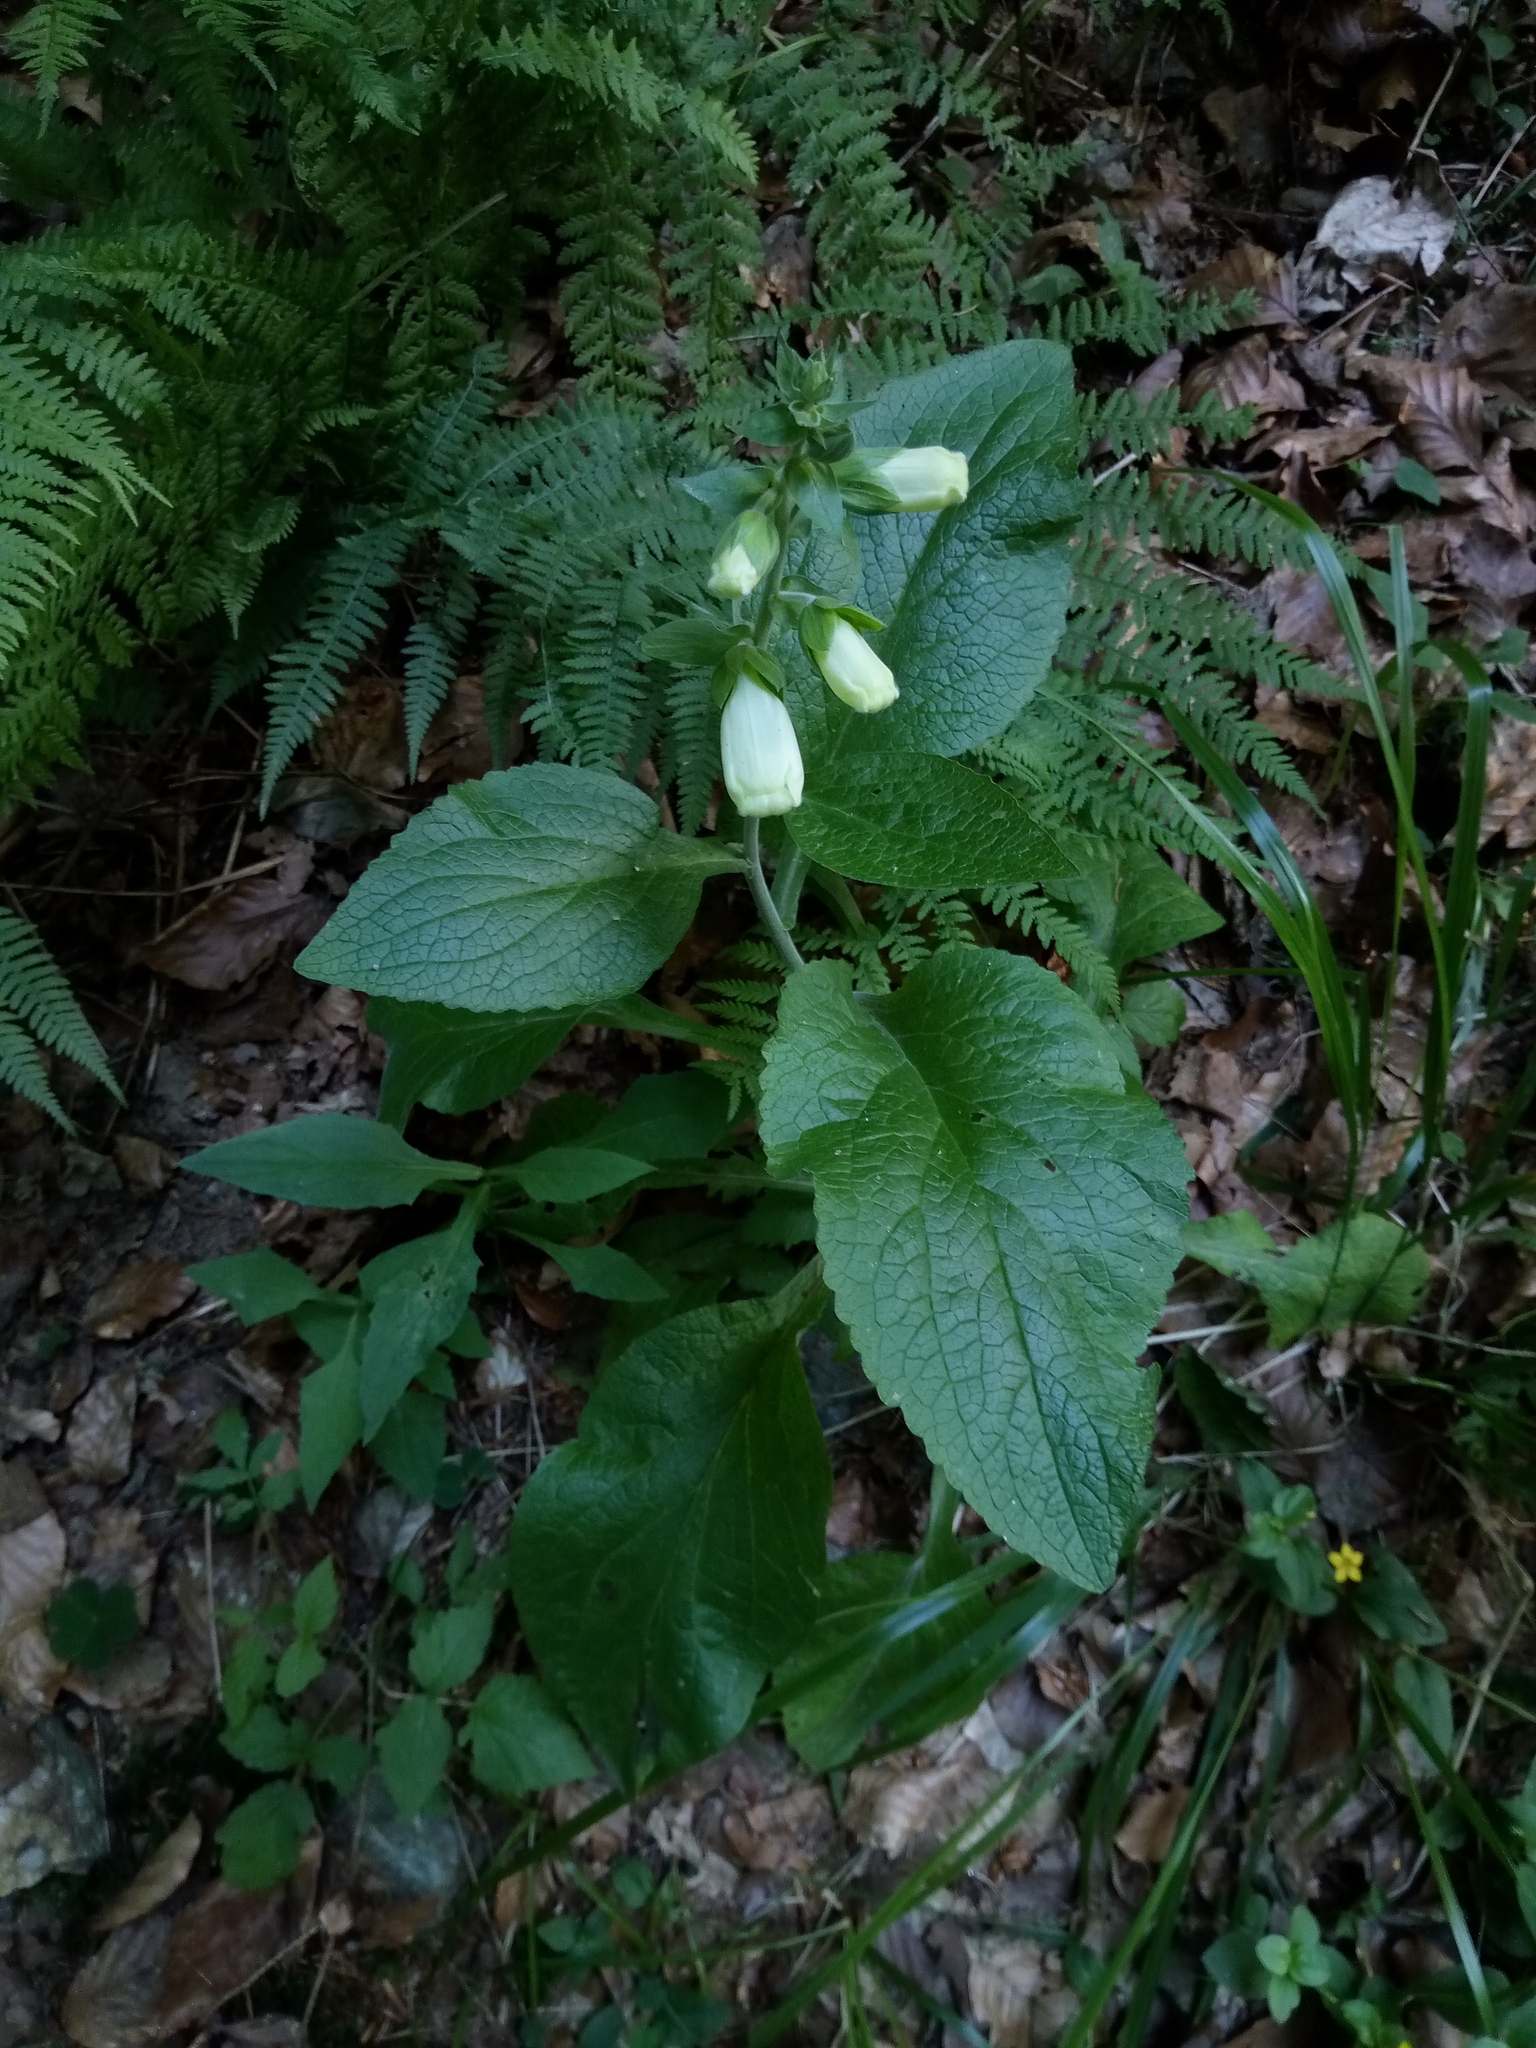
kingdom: Plantae
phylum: Tracheophyta
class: Magnoliopsida
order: Lamiales
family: Plantaginaceae
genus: Digitalis
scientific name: Digitalis purpurea
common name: Foxglove
